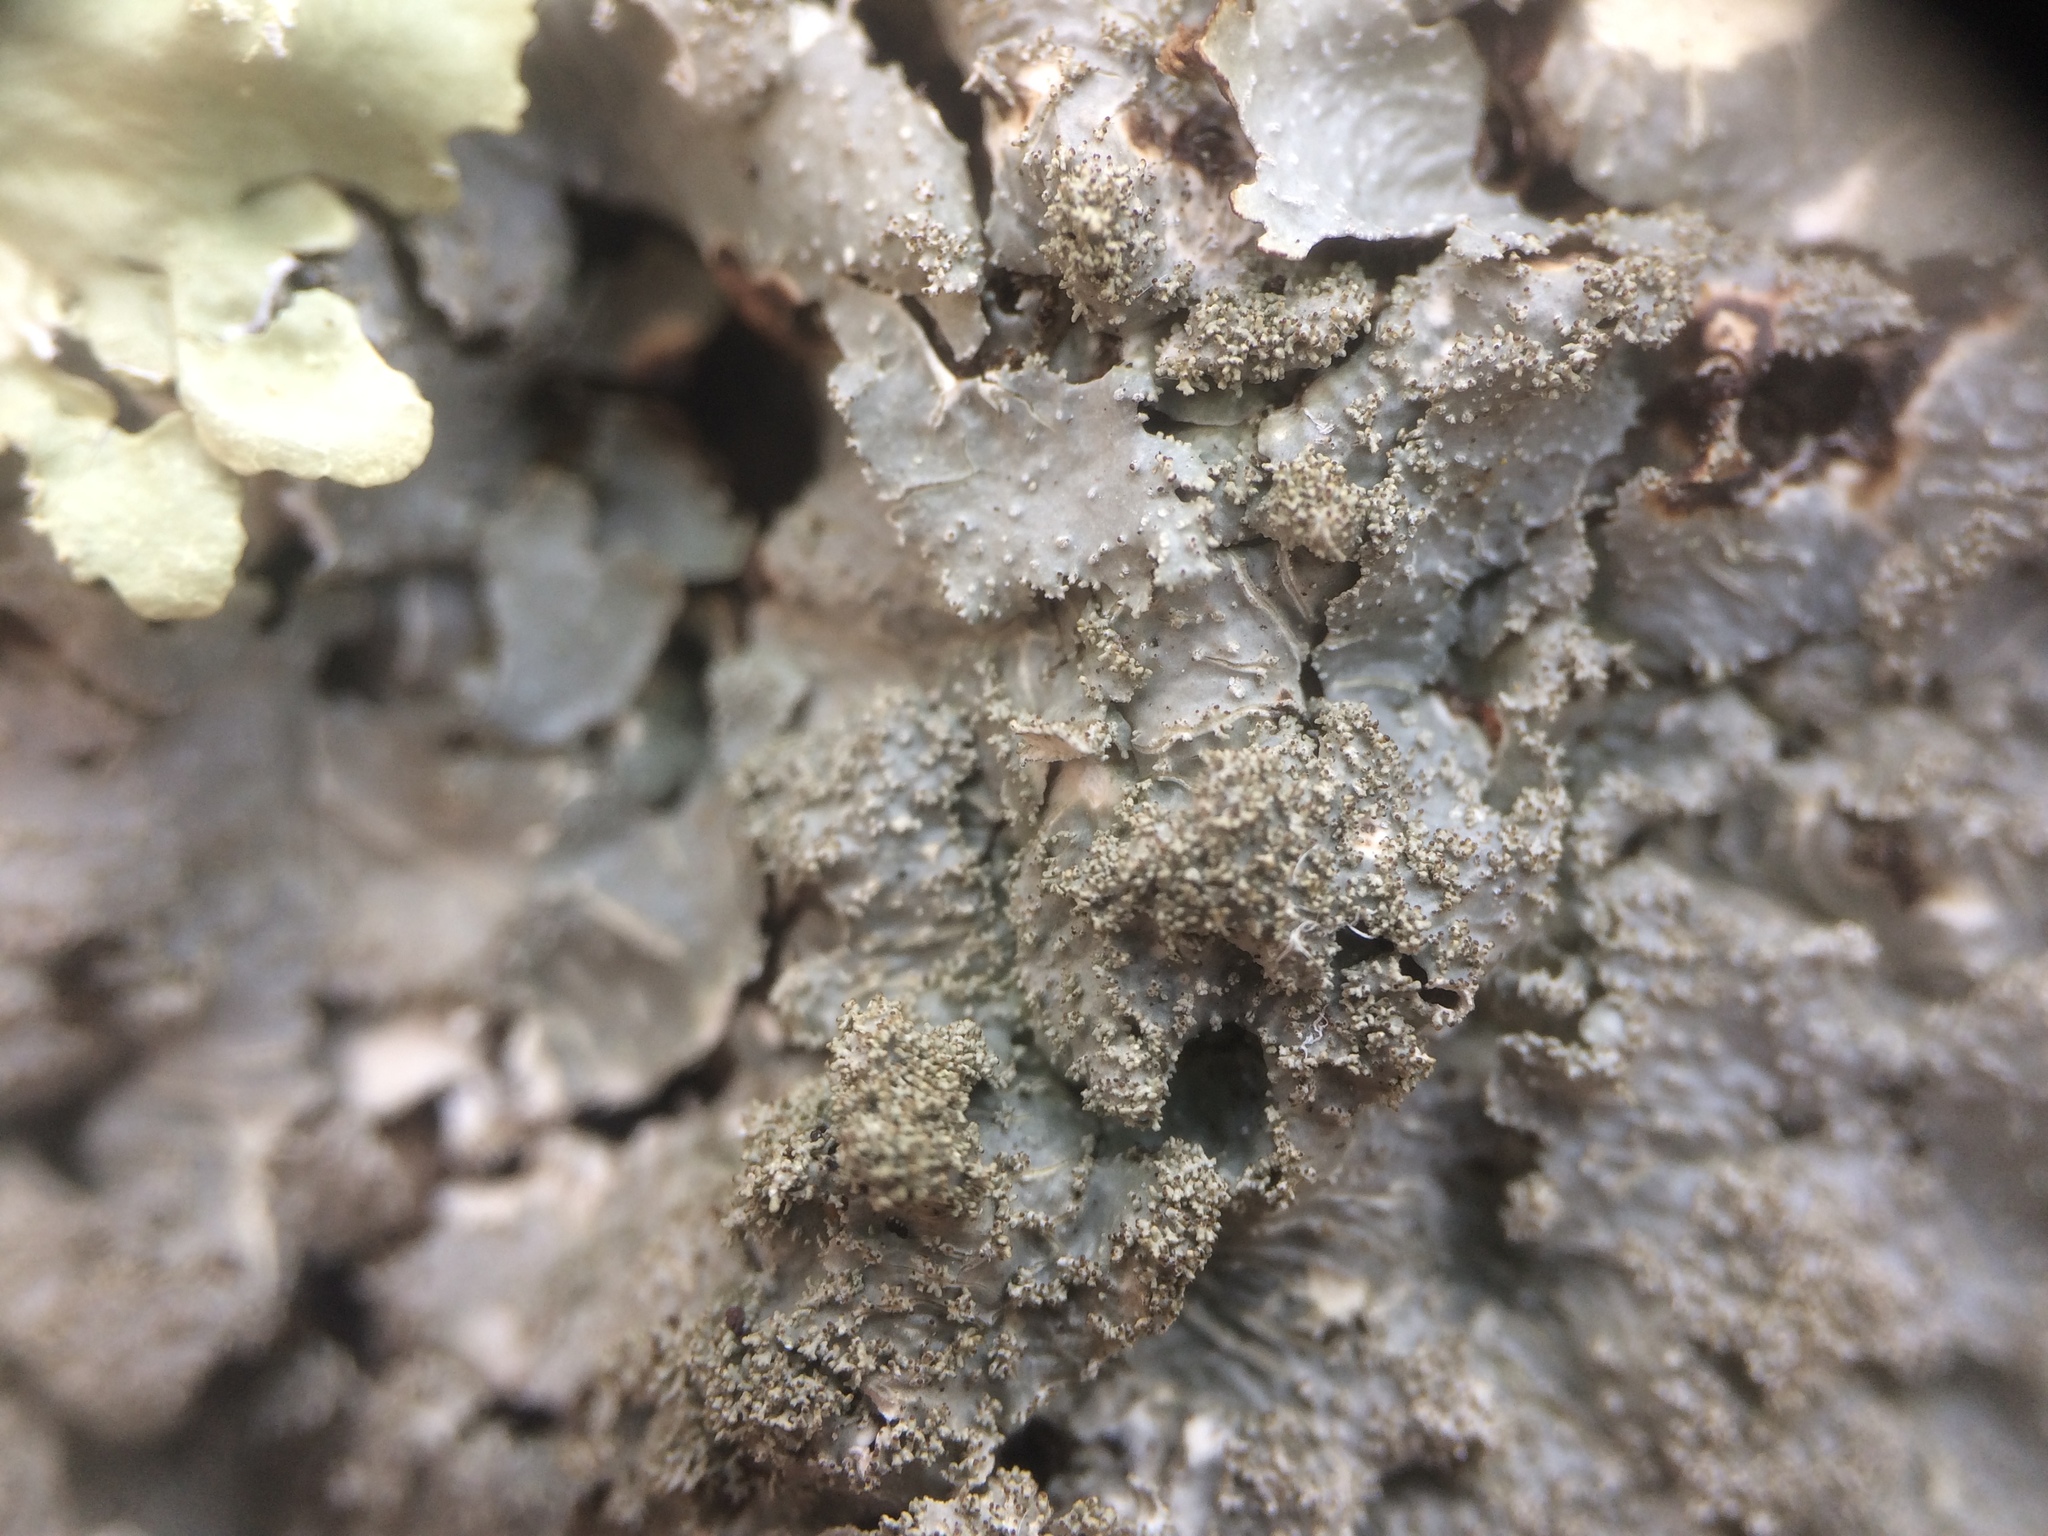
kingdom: Fungi
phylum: Ascomycota
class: Lecanoromycetes
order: Lecanorales
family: Parmeliaceae
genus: Punctelia
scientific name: Punctelia rudecta
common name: Rough speckled shield lichen
